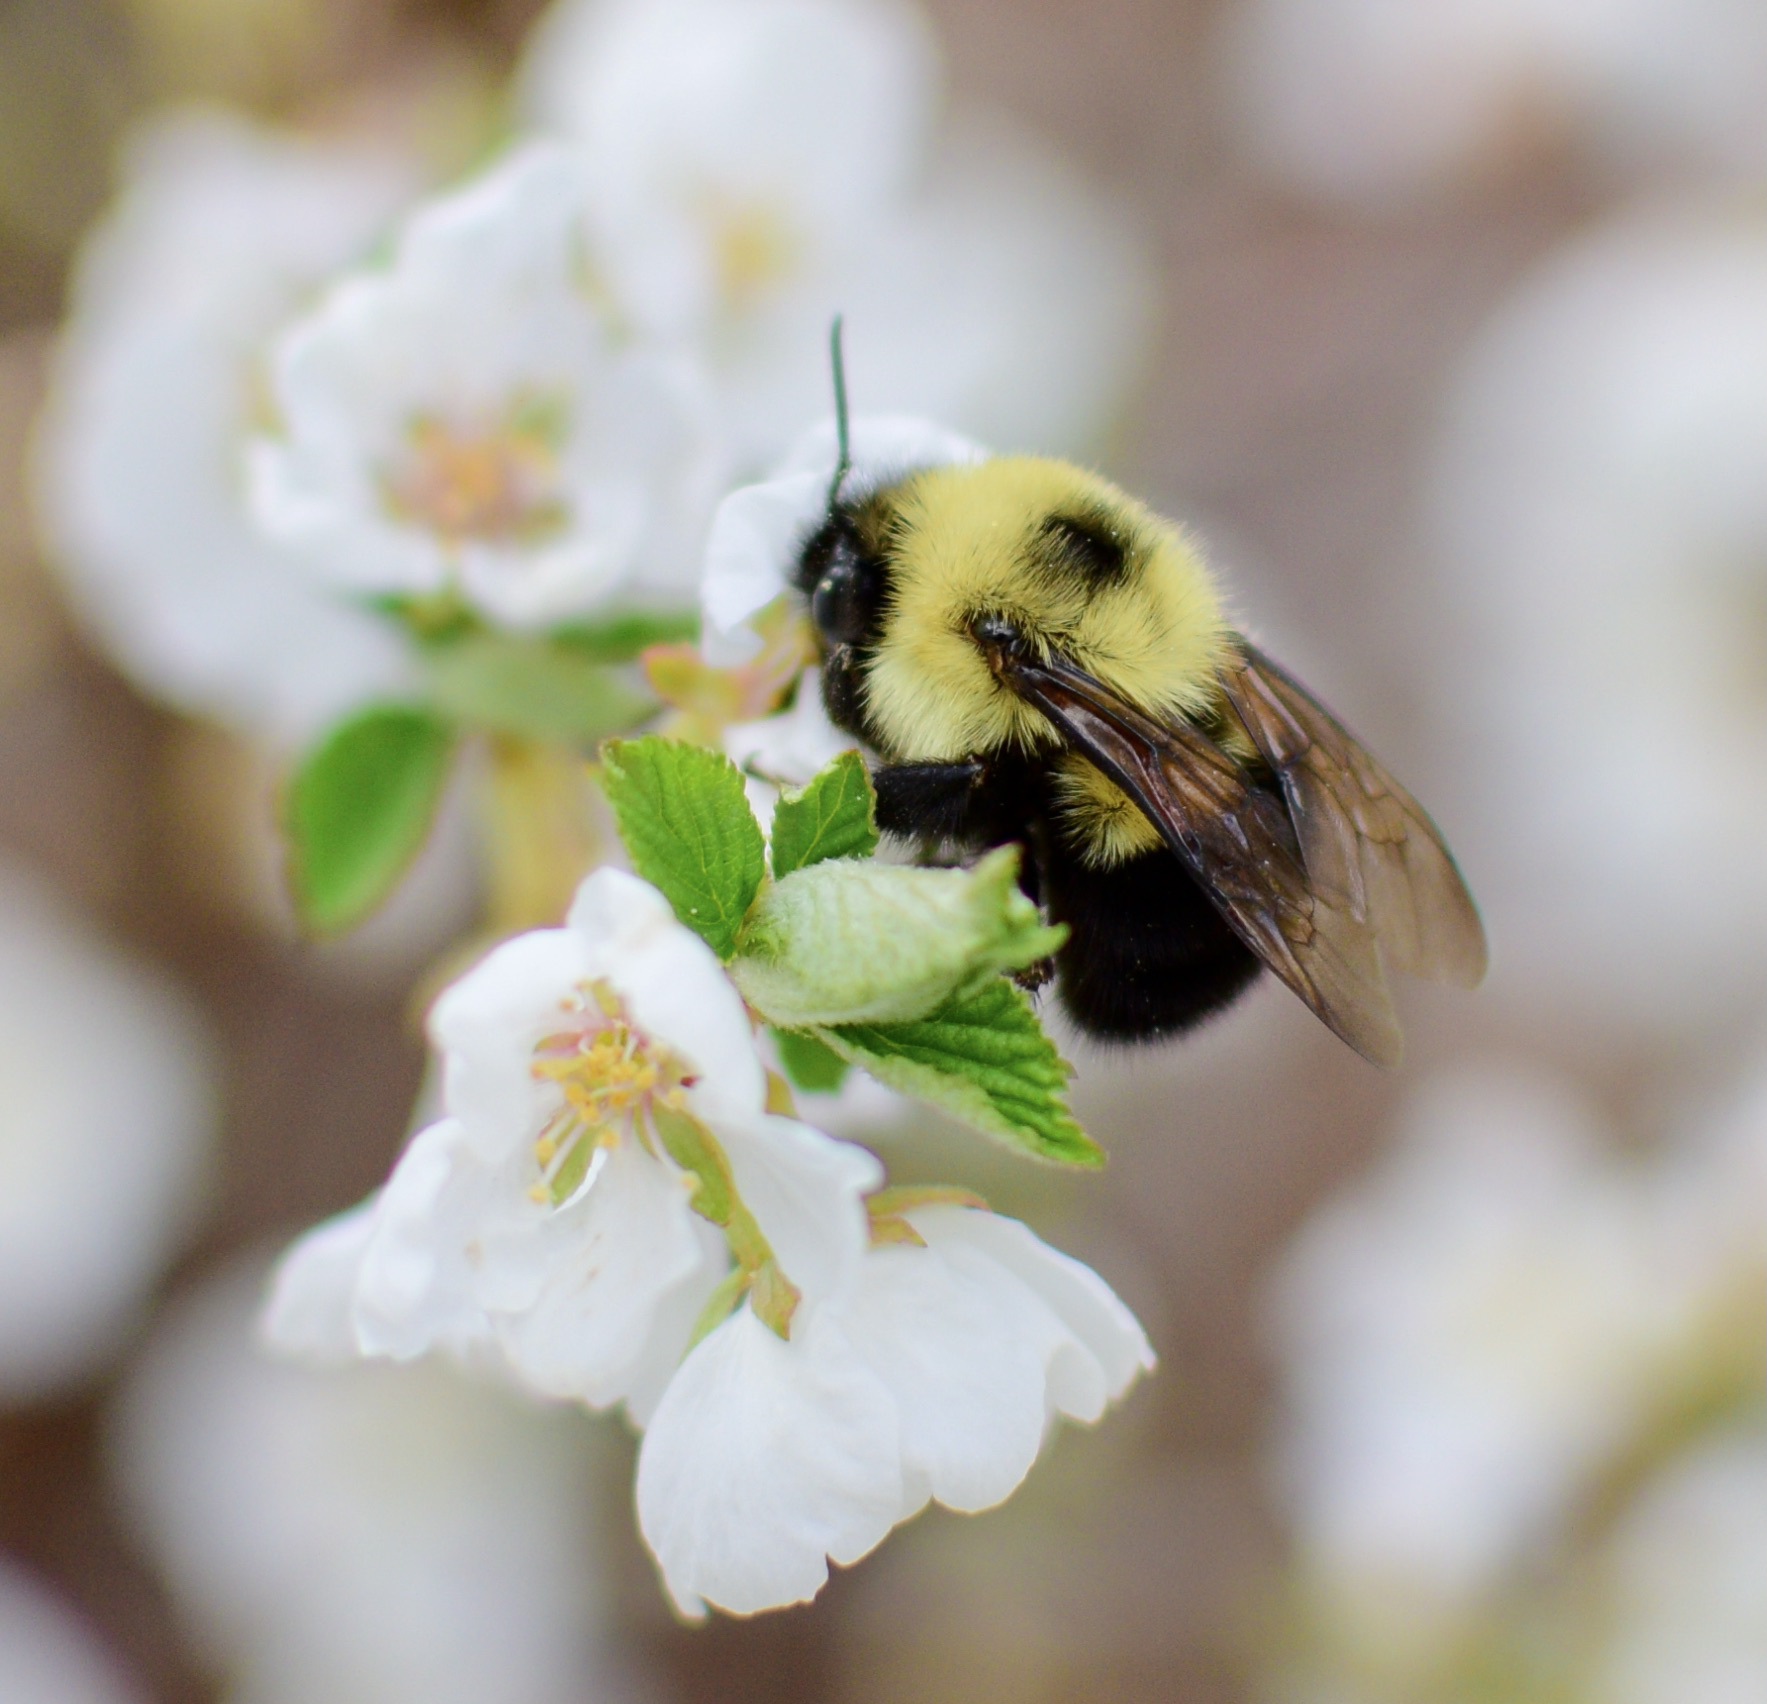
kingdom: Animalia
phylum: Arthropoda
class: Insecta
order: Hymenoptera
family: Apidae
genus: Bombus
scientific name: Bombus bimaculatus
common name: Two-spotted bumble bee
